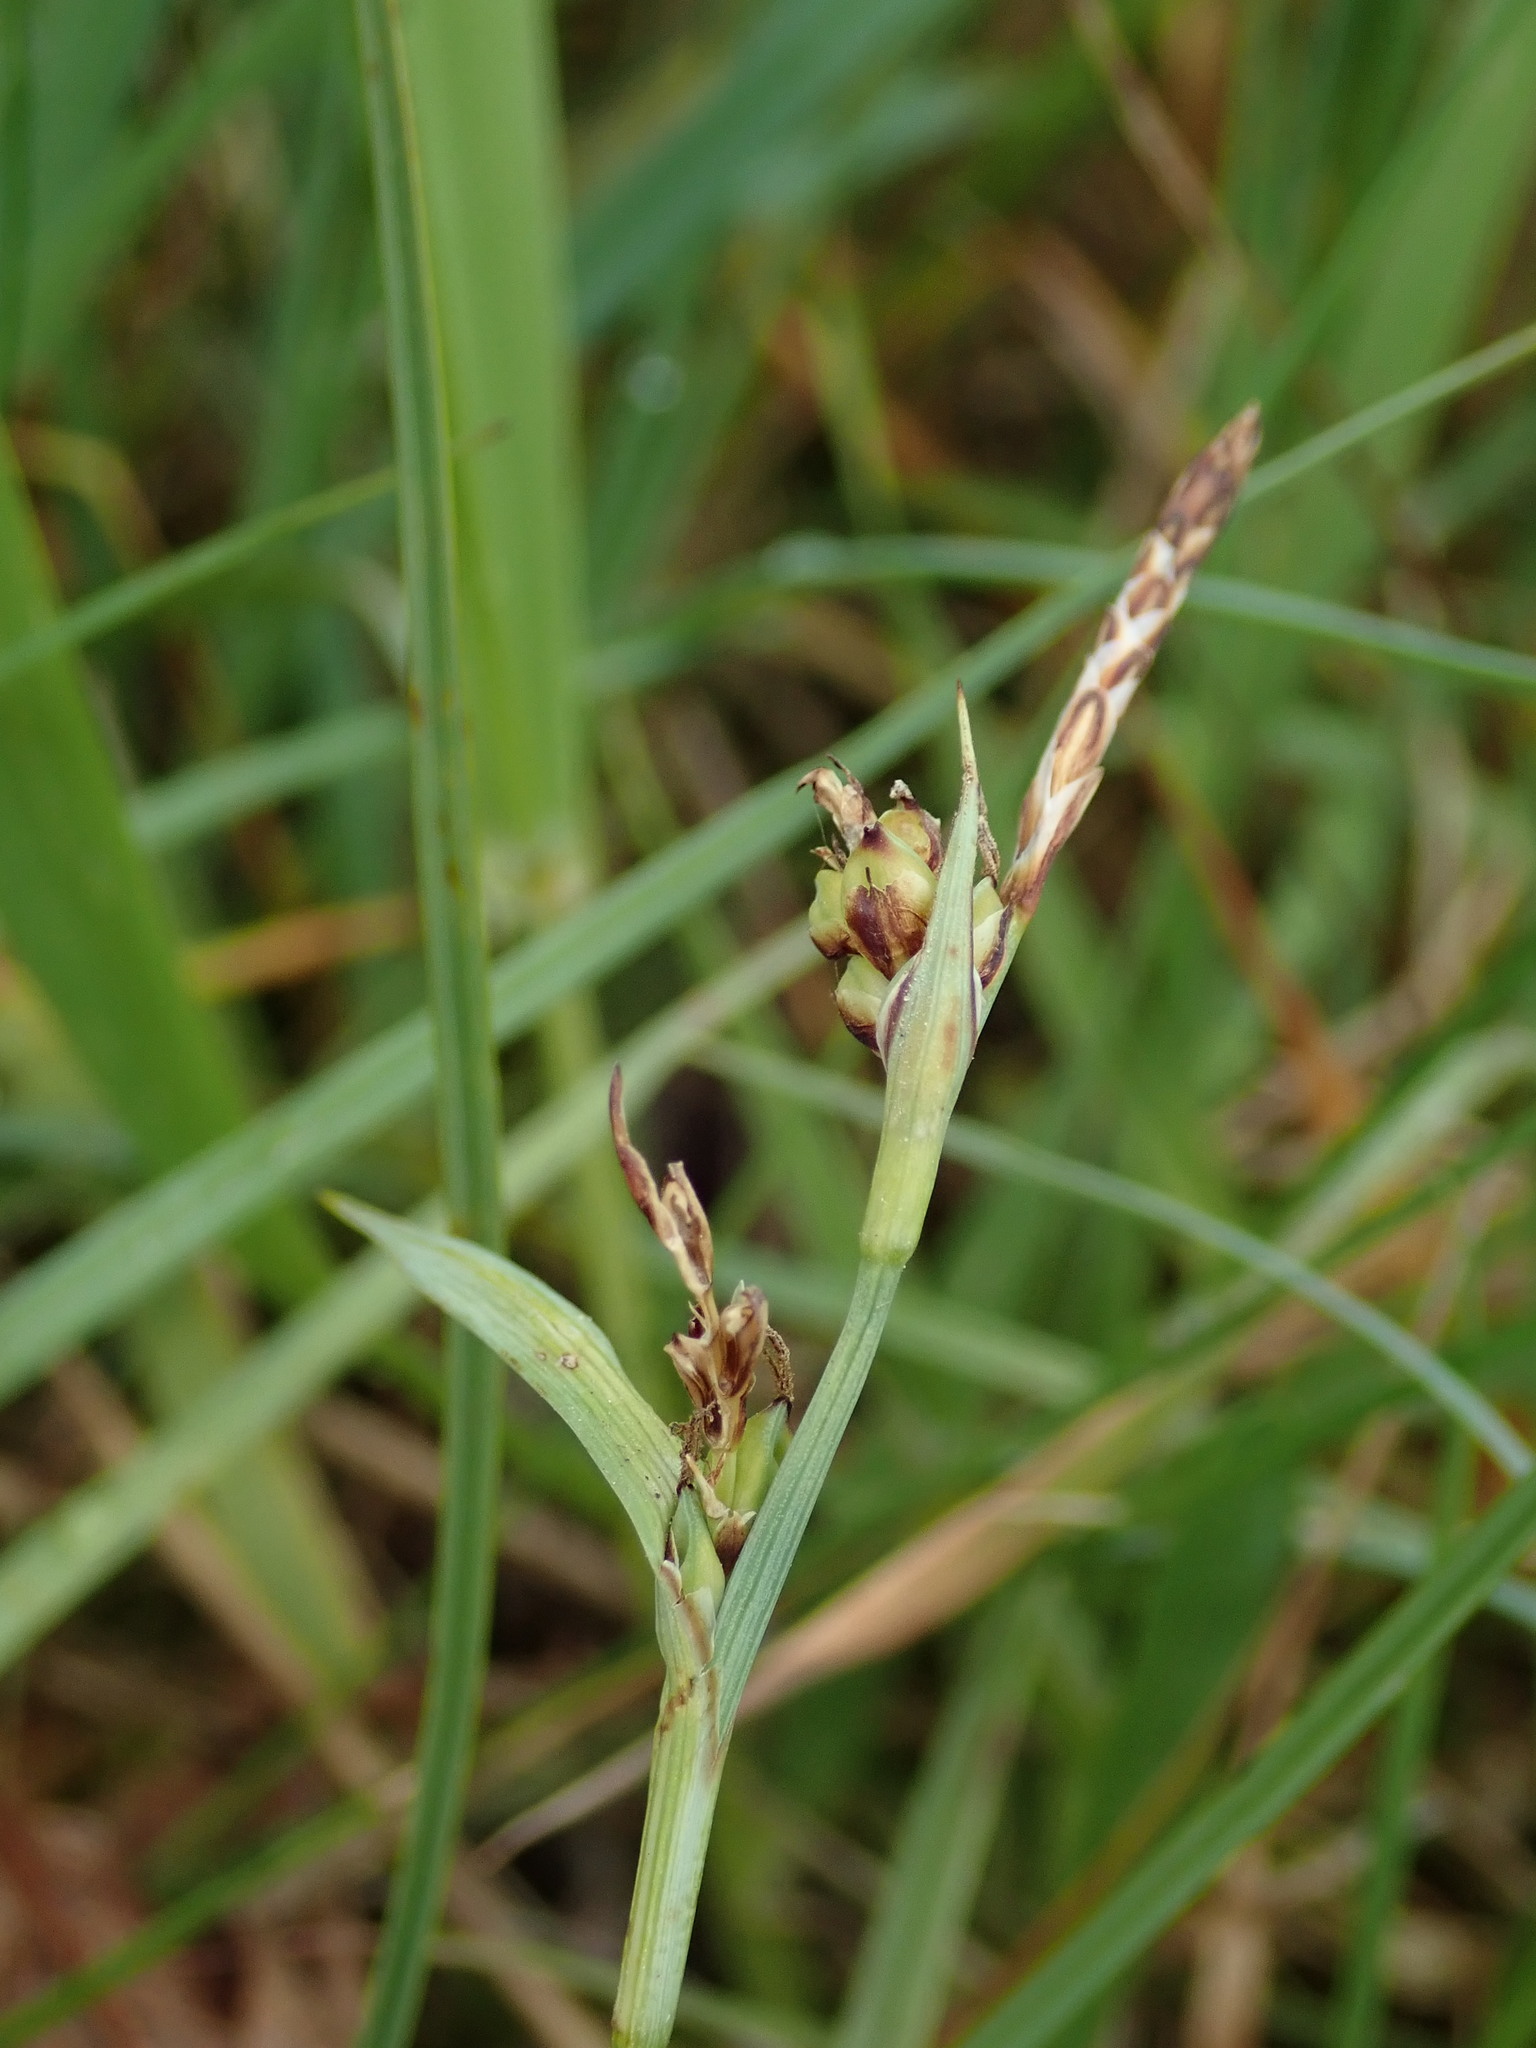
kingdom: Plantae
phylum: Tracheophyta
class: Liliopsida
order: Poales
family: Cyperaceae
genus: Carex
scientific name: Carex panicea
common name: Carnation sedge
